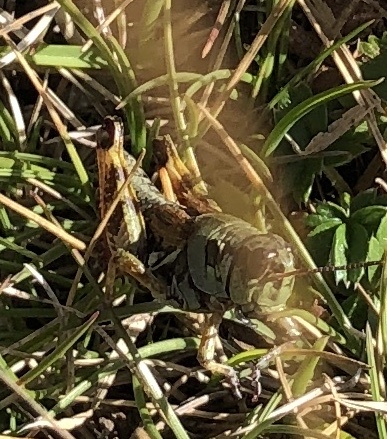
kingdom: Animalia
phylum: Arthropoda
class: Insecta
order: Orthoptera
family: Acrididae
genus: Bohemanella
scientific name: Bohemanella frigida
